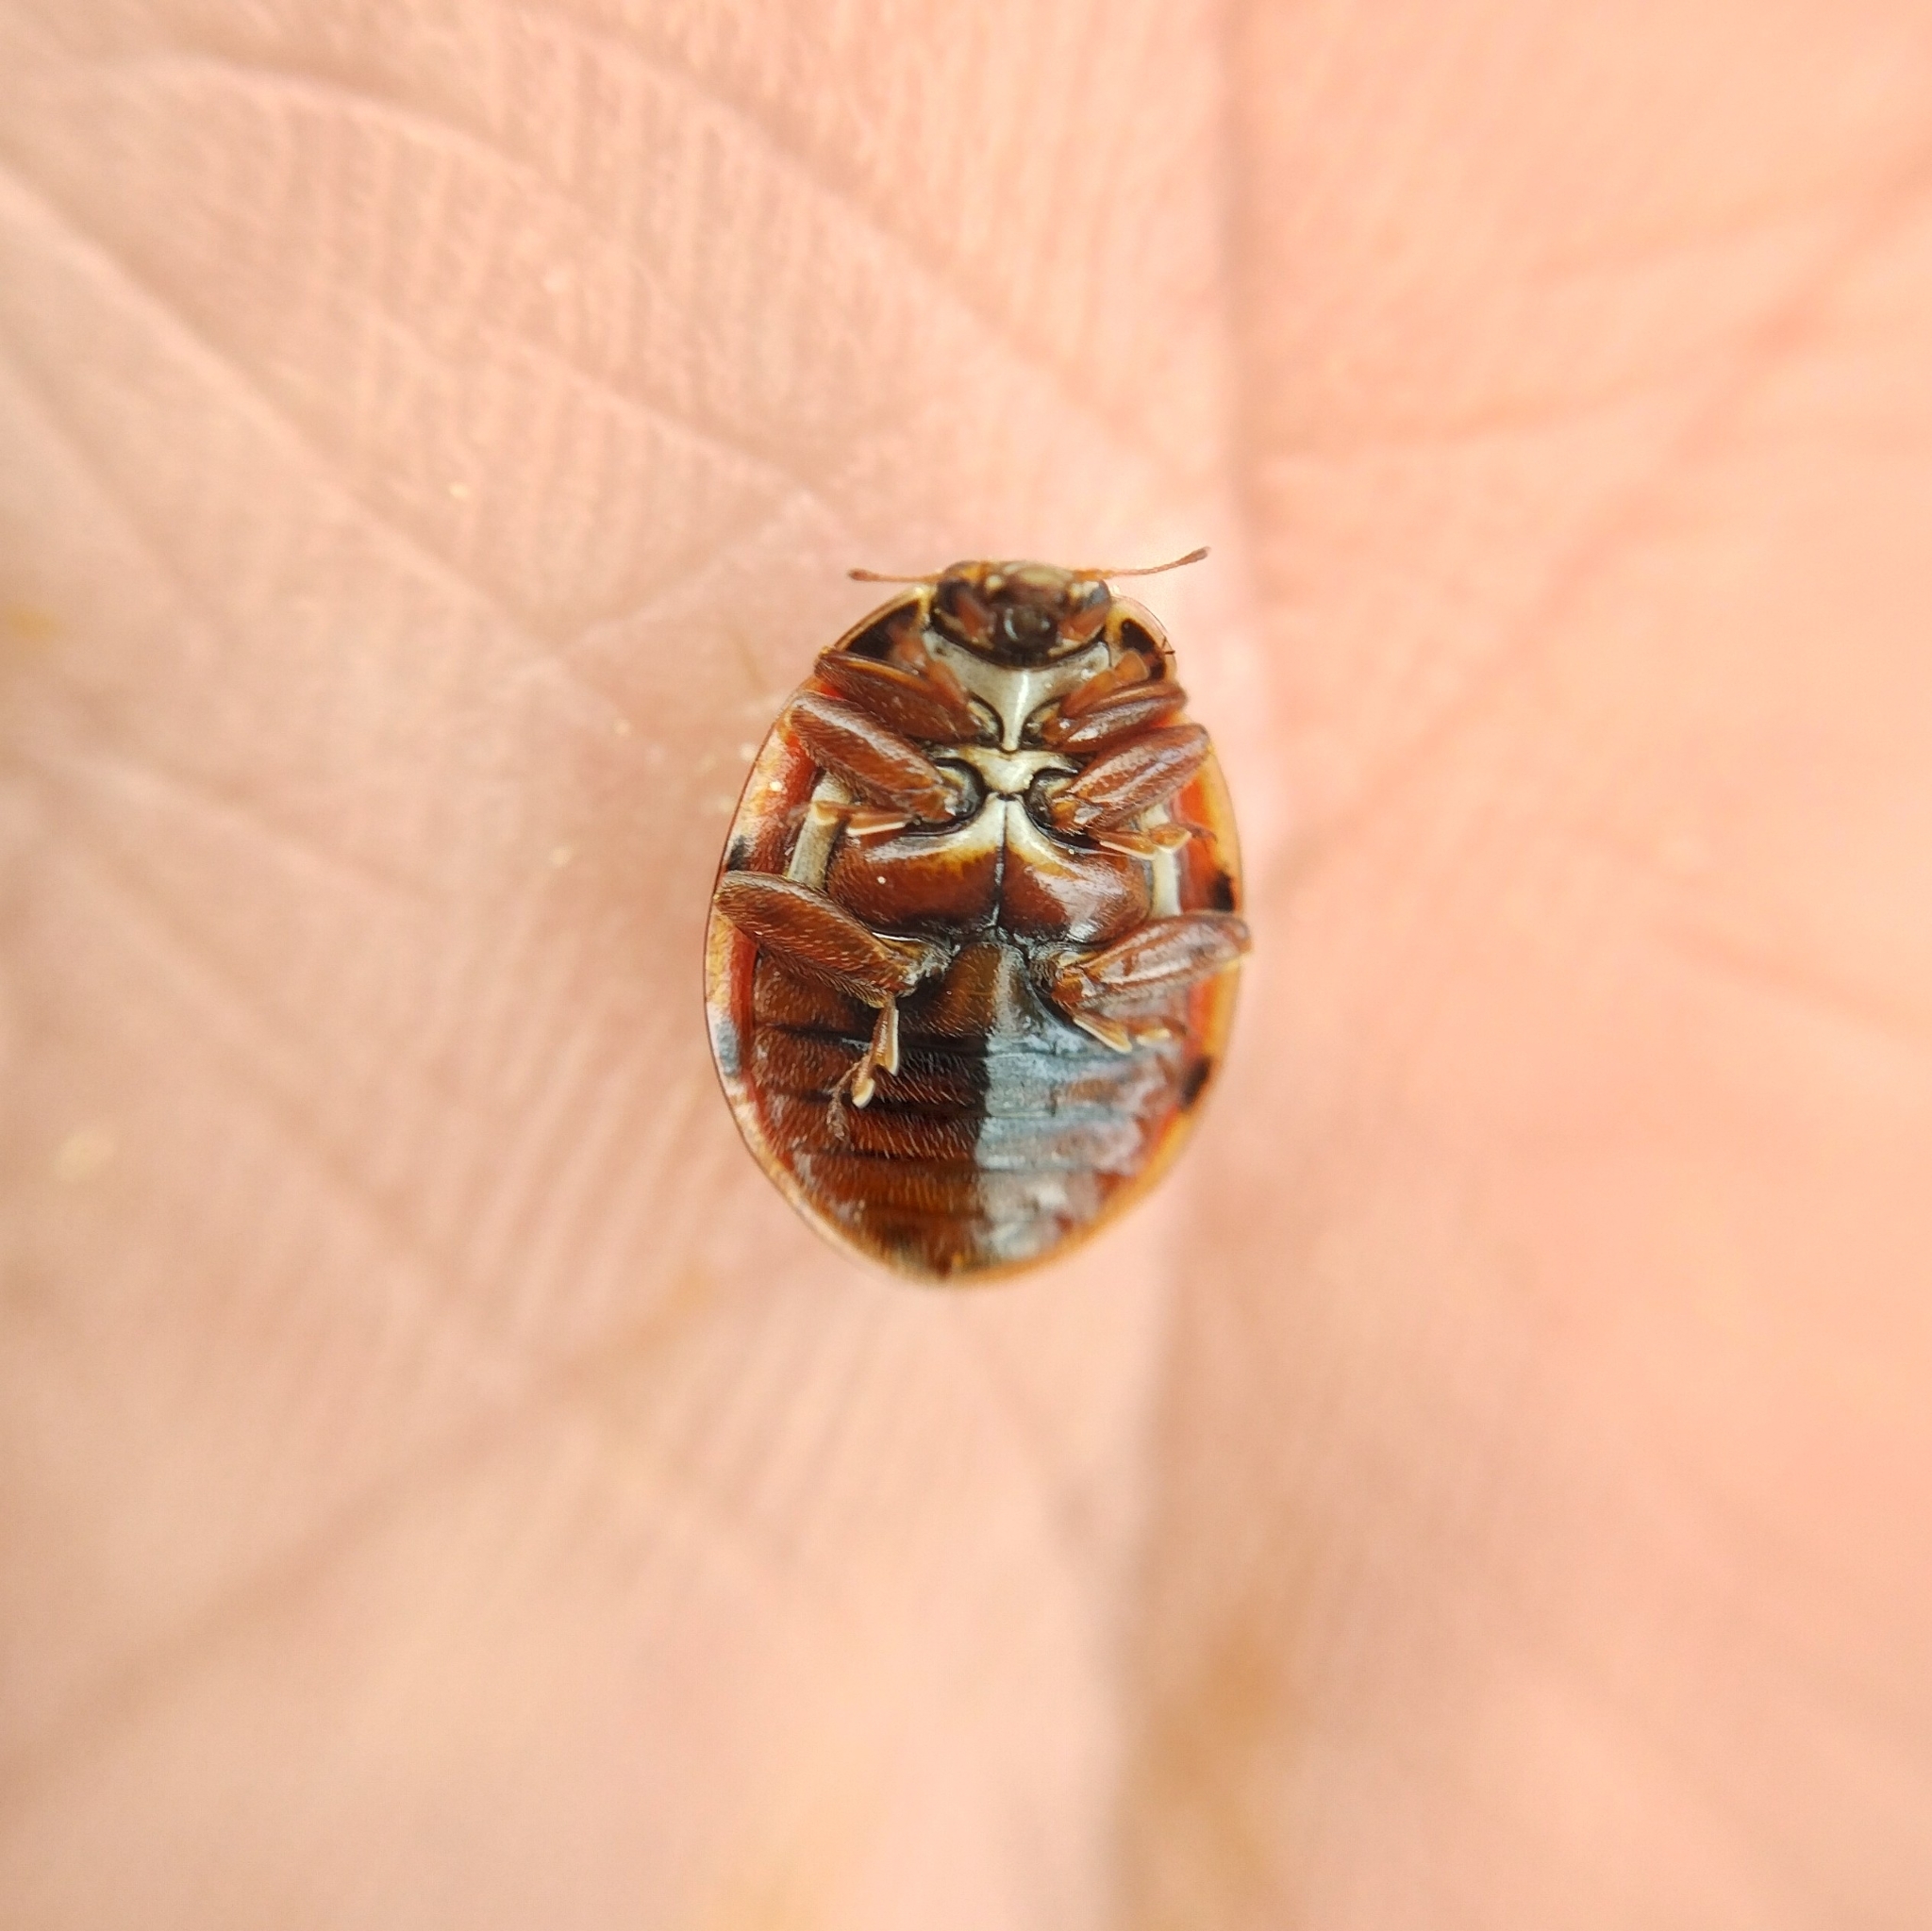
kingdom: Animalia
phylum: Arthropoda
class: Insecta
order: Coleoptera
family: Coccinellidae
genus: Harmonia
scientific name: Harmonia quadripunctata
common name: Cream-streaked ladybird
